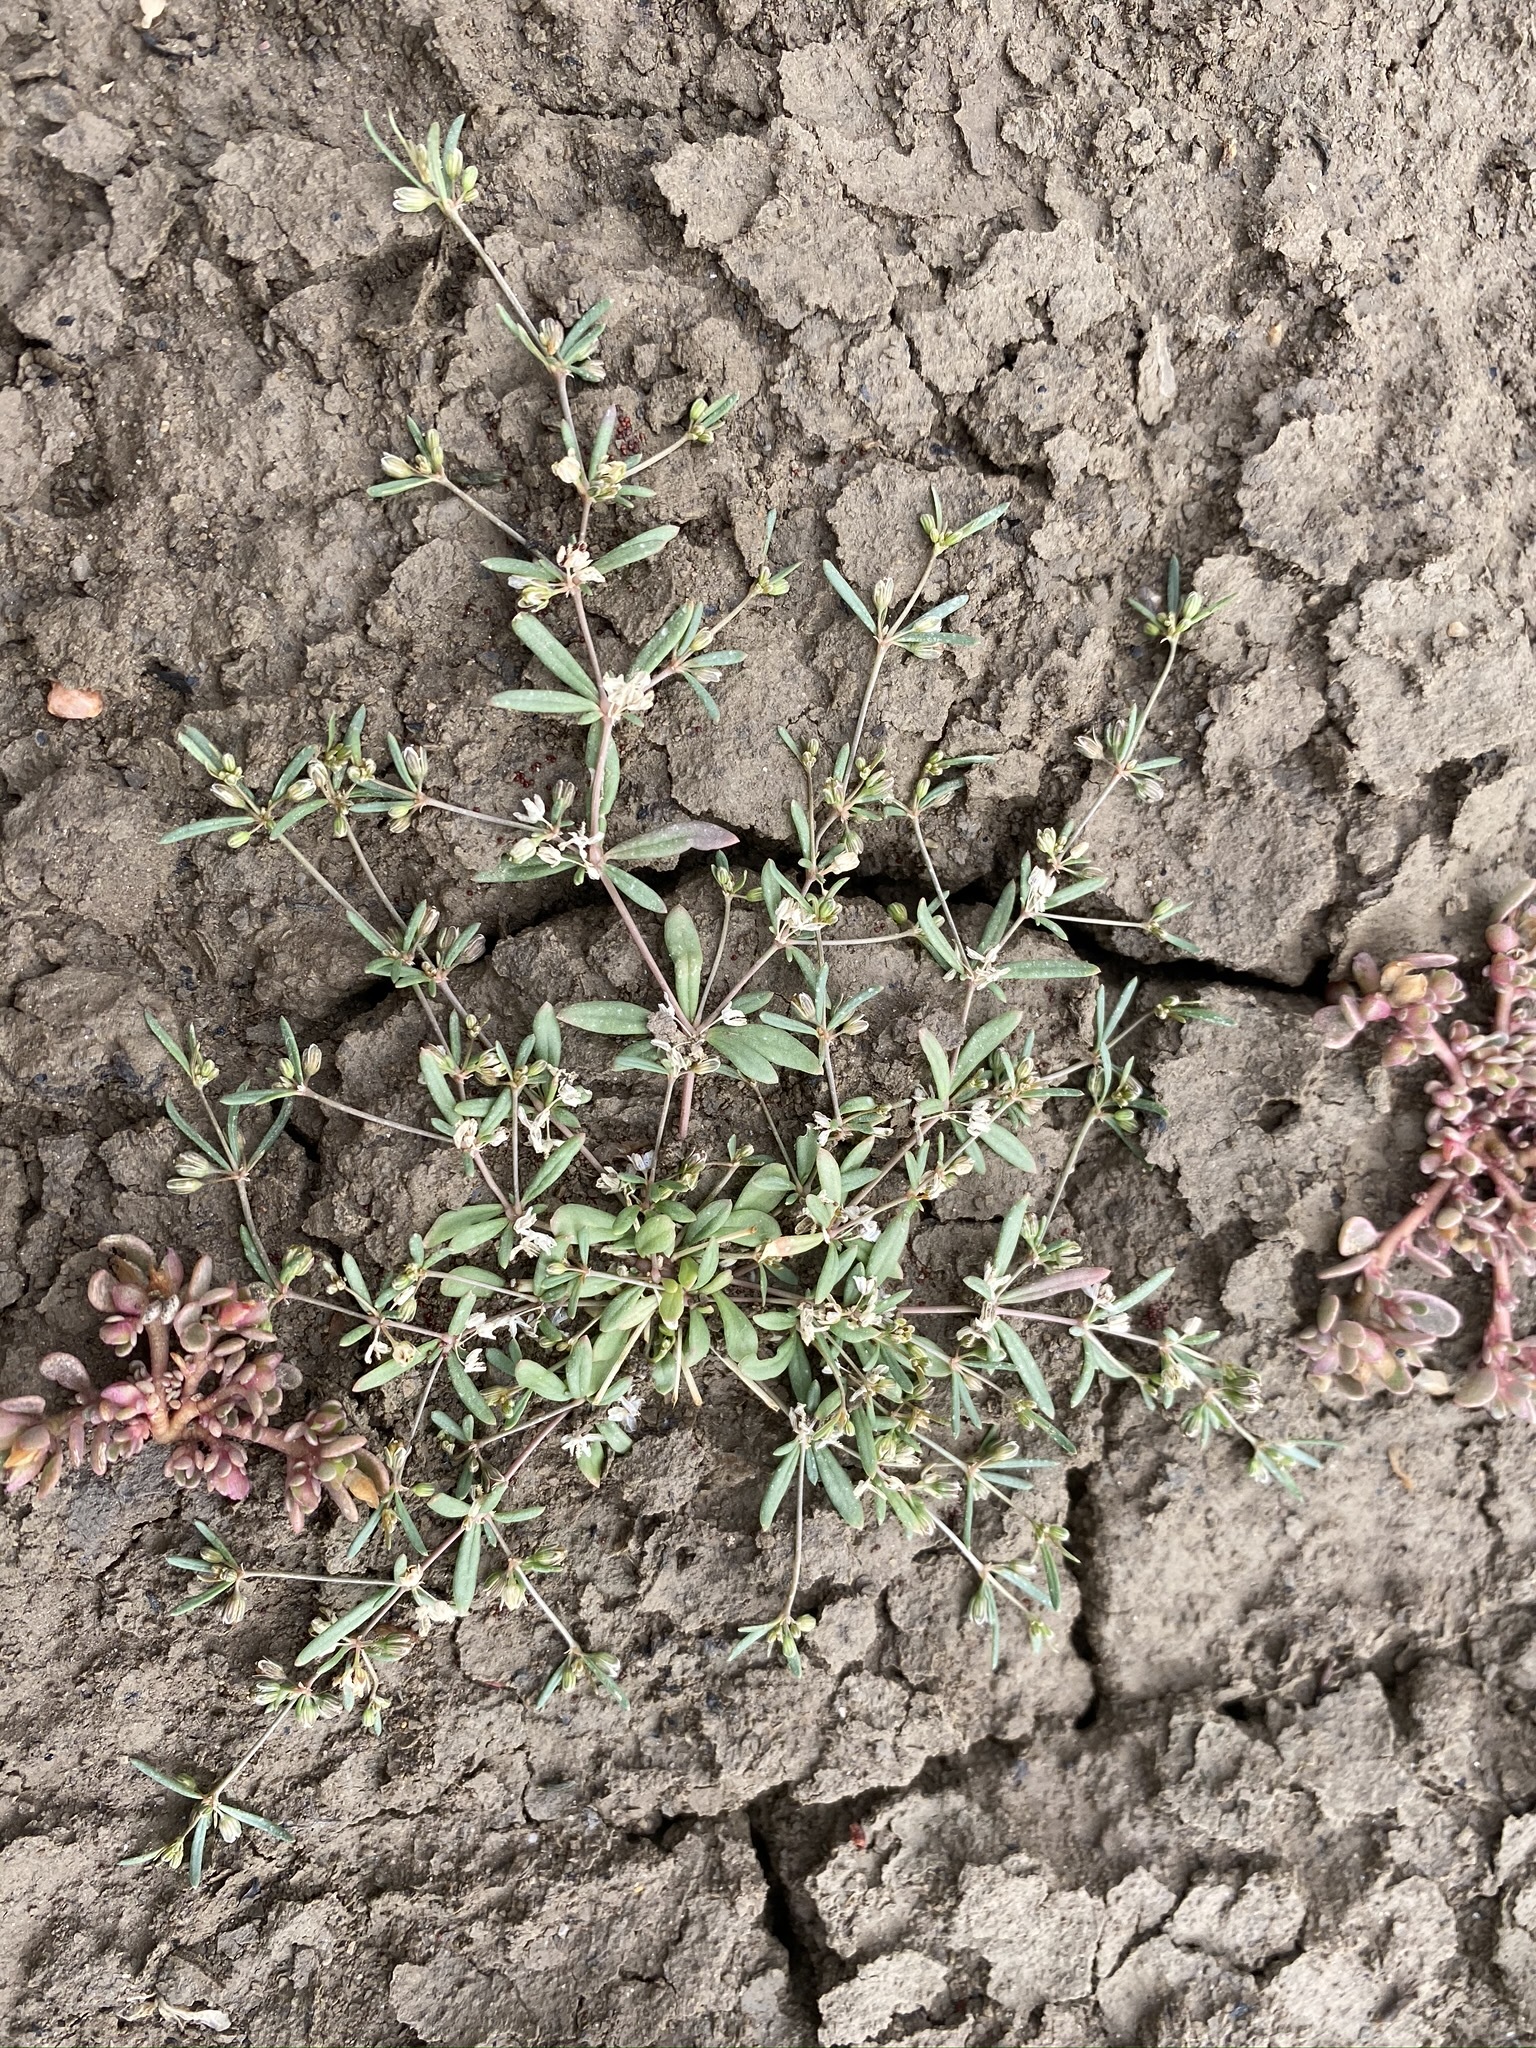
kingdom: Plantae
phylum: Tracheophyta
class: Magnoliopsida
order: Caryophyllales
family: Molluginaceae
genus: Mollugo
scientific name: Mollugo verticillata
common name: Green carpetweed
